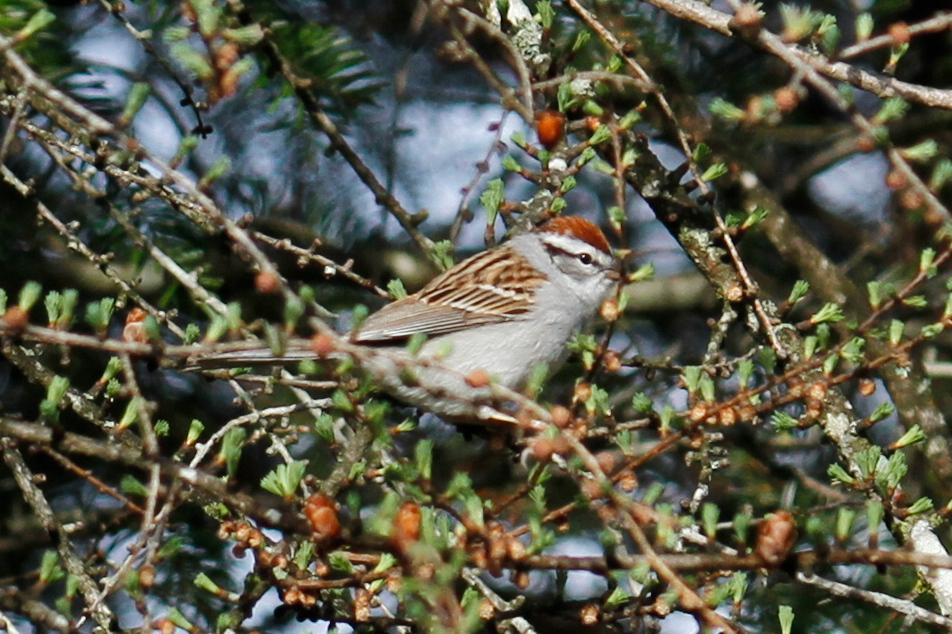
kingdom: Animalia
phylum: Chordata
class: Aves
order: Passeriformes
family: Passerellidae
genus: Spizella
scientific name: Spizella passerina
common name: Chipping sparrow
